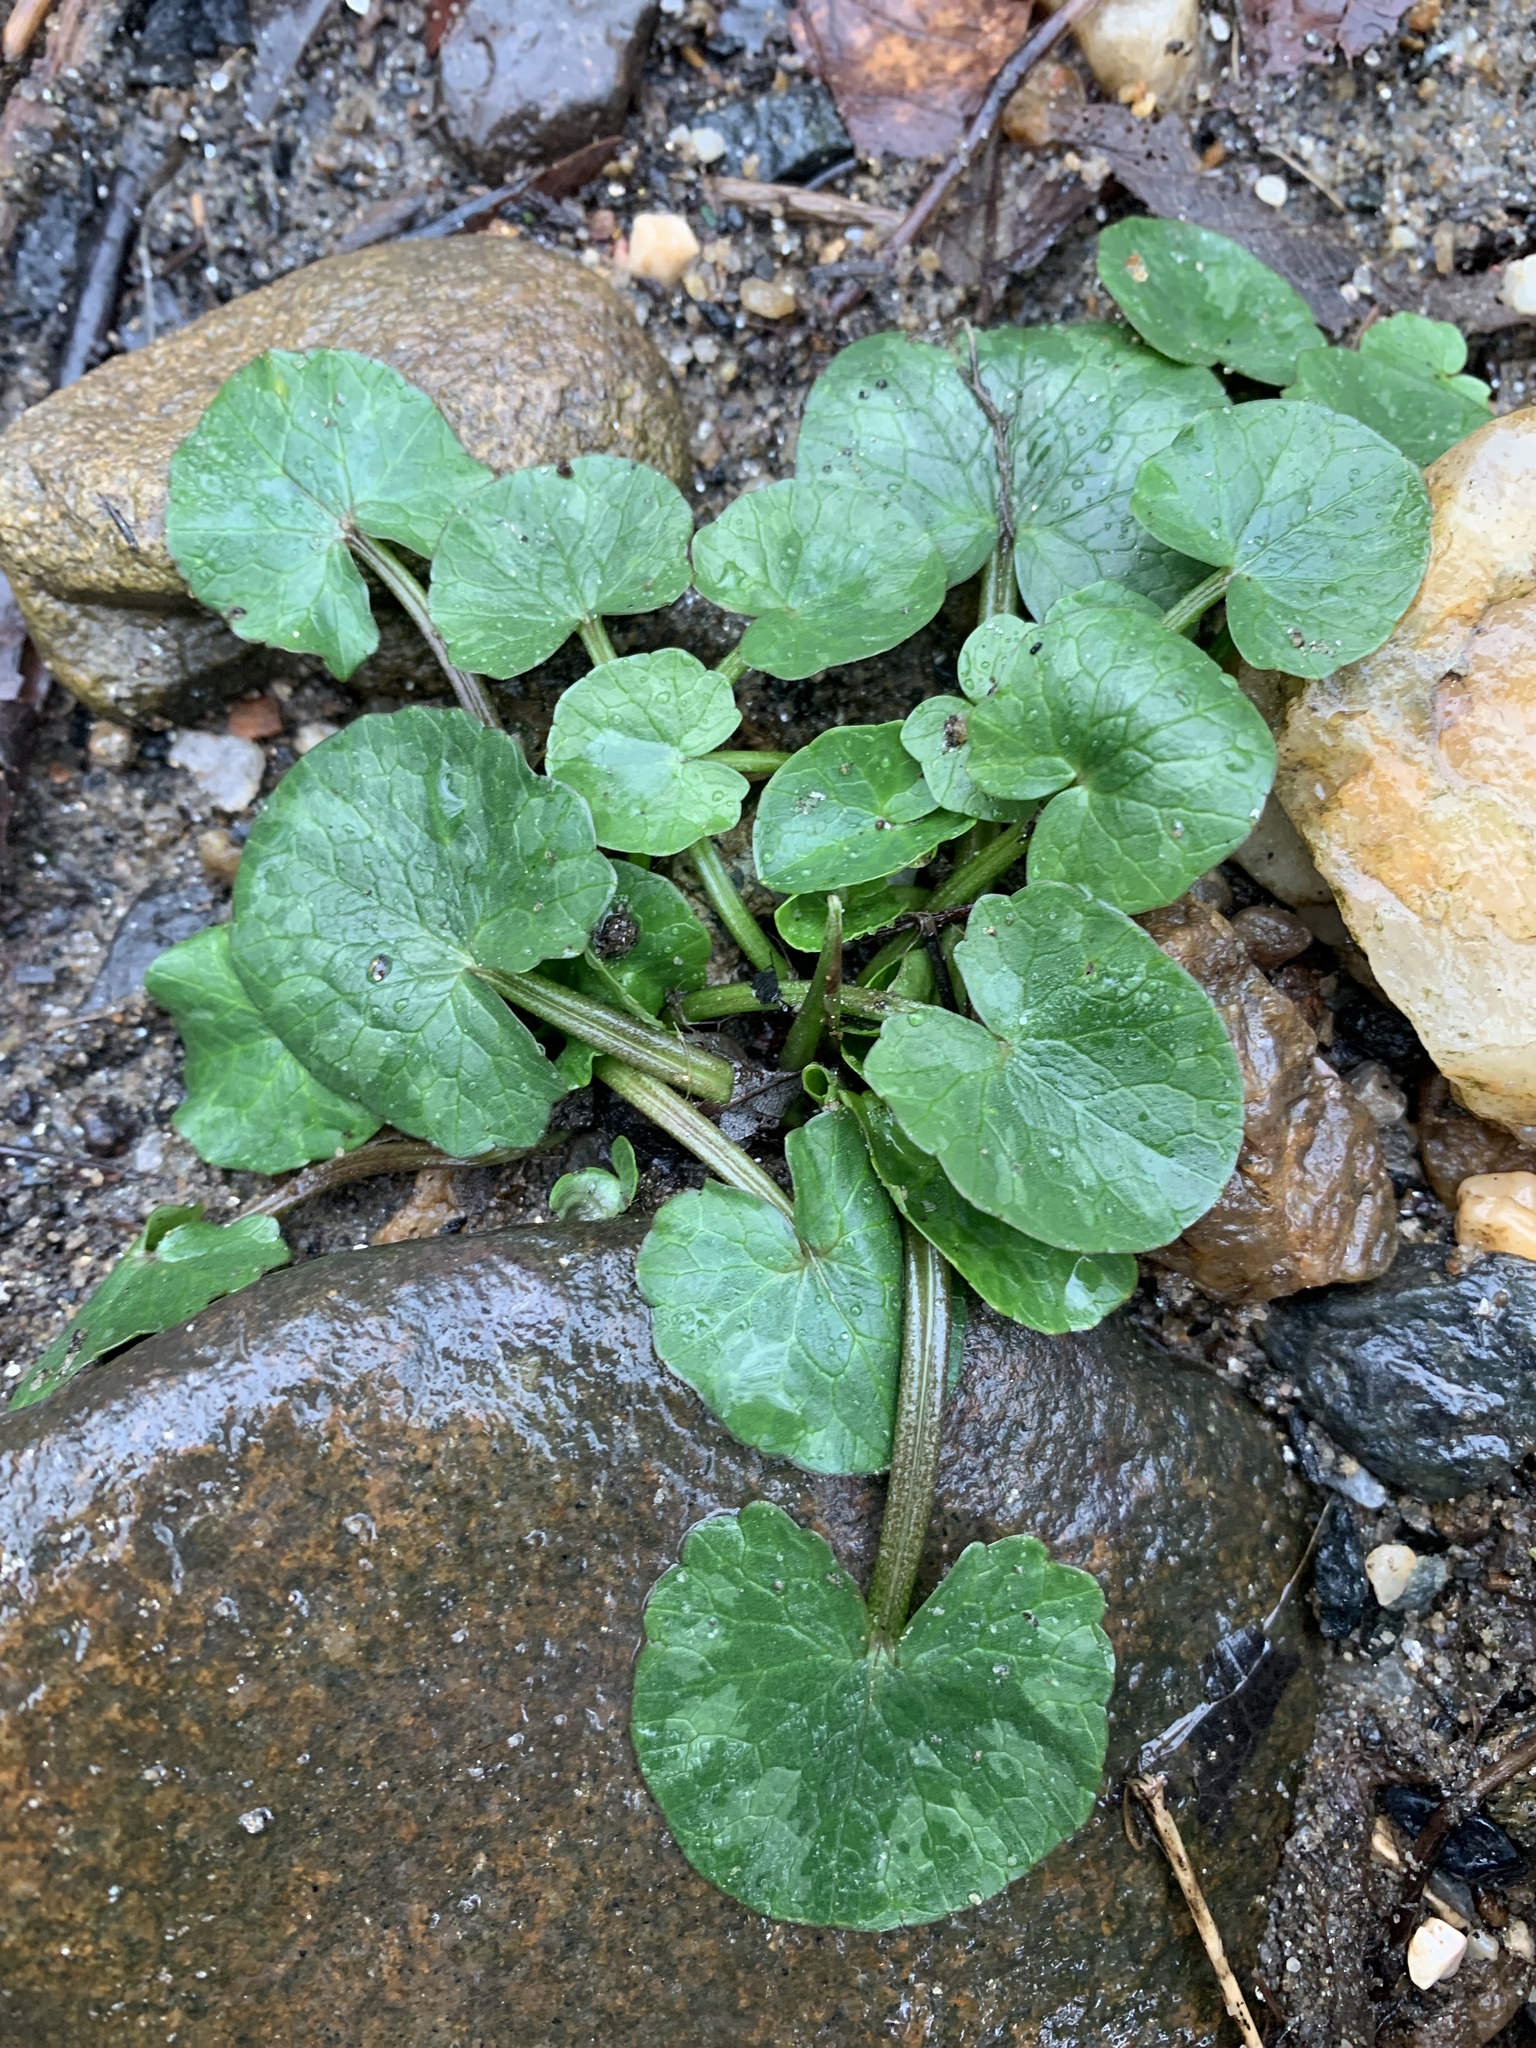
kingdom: Plantae
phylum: Tracheophyta
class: Magnoliopsida
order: Ranunculales
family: Ranunculaceae
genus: Ficaria
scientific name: Ficaria verna
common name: Lesser celandine
